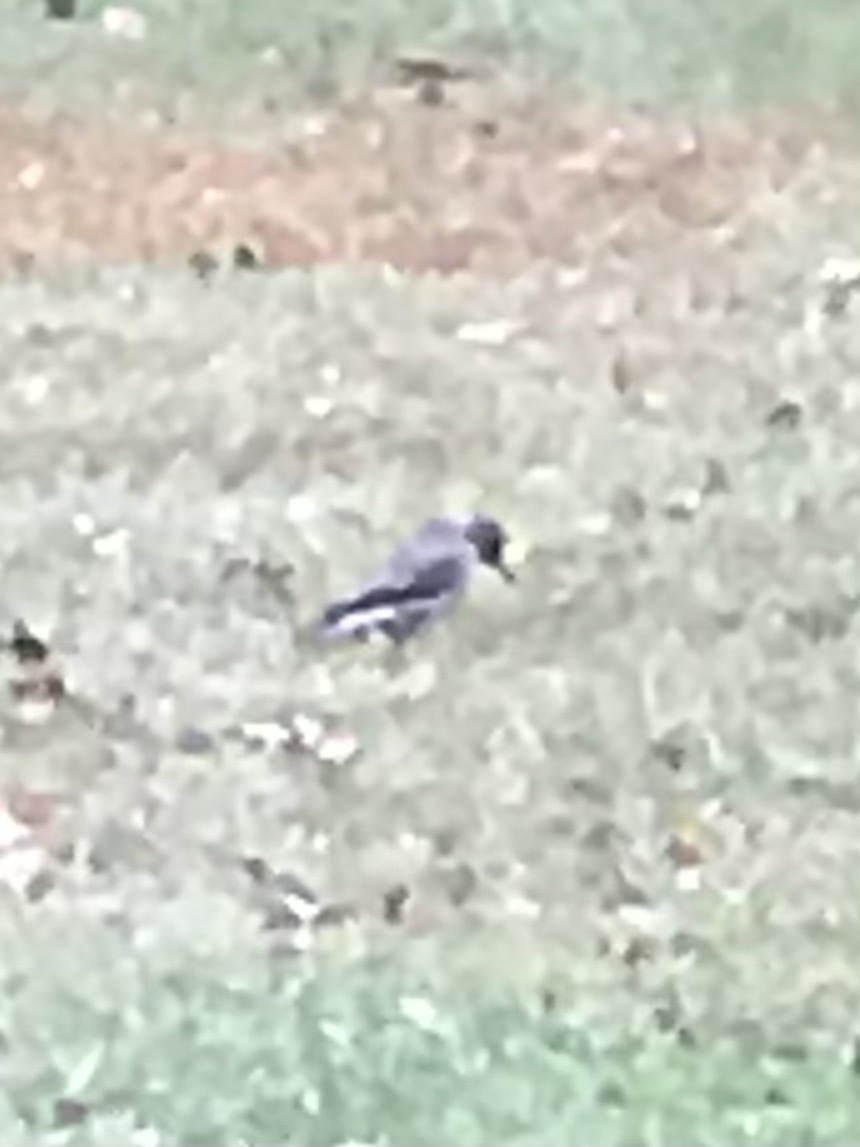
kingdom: Animalia
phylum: Chordata
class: Aves
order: Piciformes
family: Picidae
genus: Colaptes
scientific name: Colaptes auratus
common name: Northern flicker
